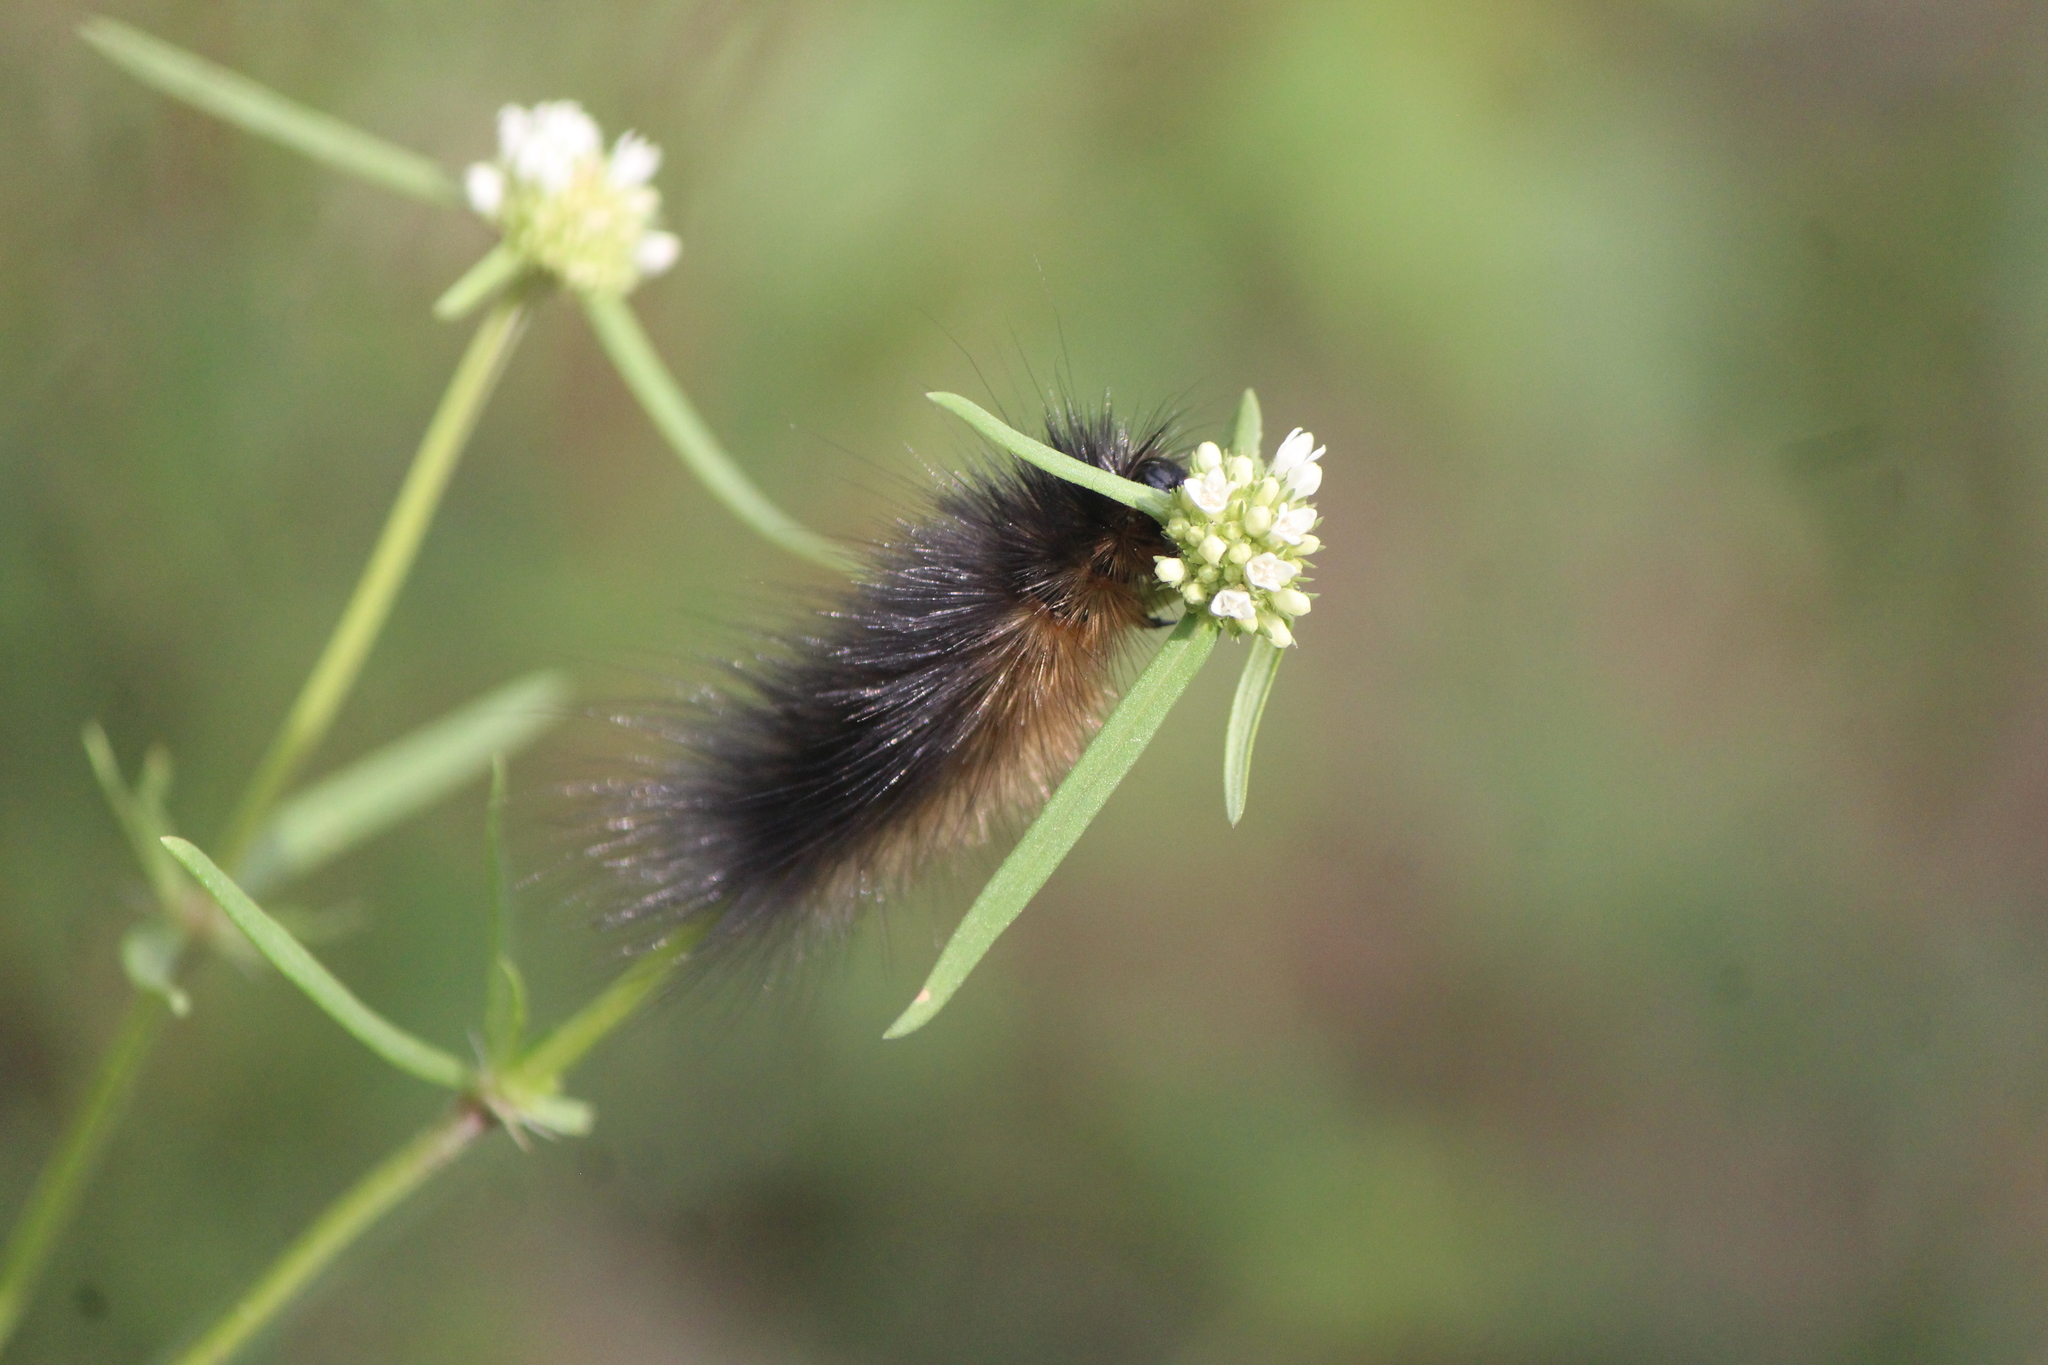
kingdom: Animalia
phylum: Arthropoda
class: Insecta
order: Lepidoptera
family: Erebidae
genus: Estigmene
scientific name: Estigmene acrea
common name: Salt marsh moth
